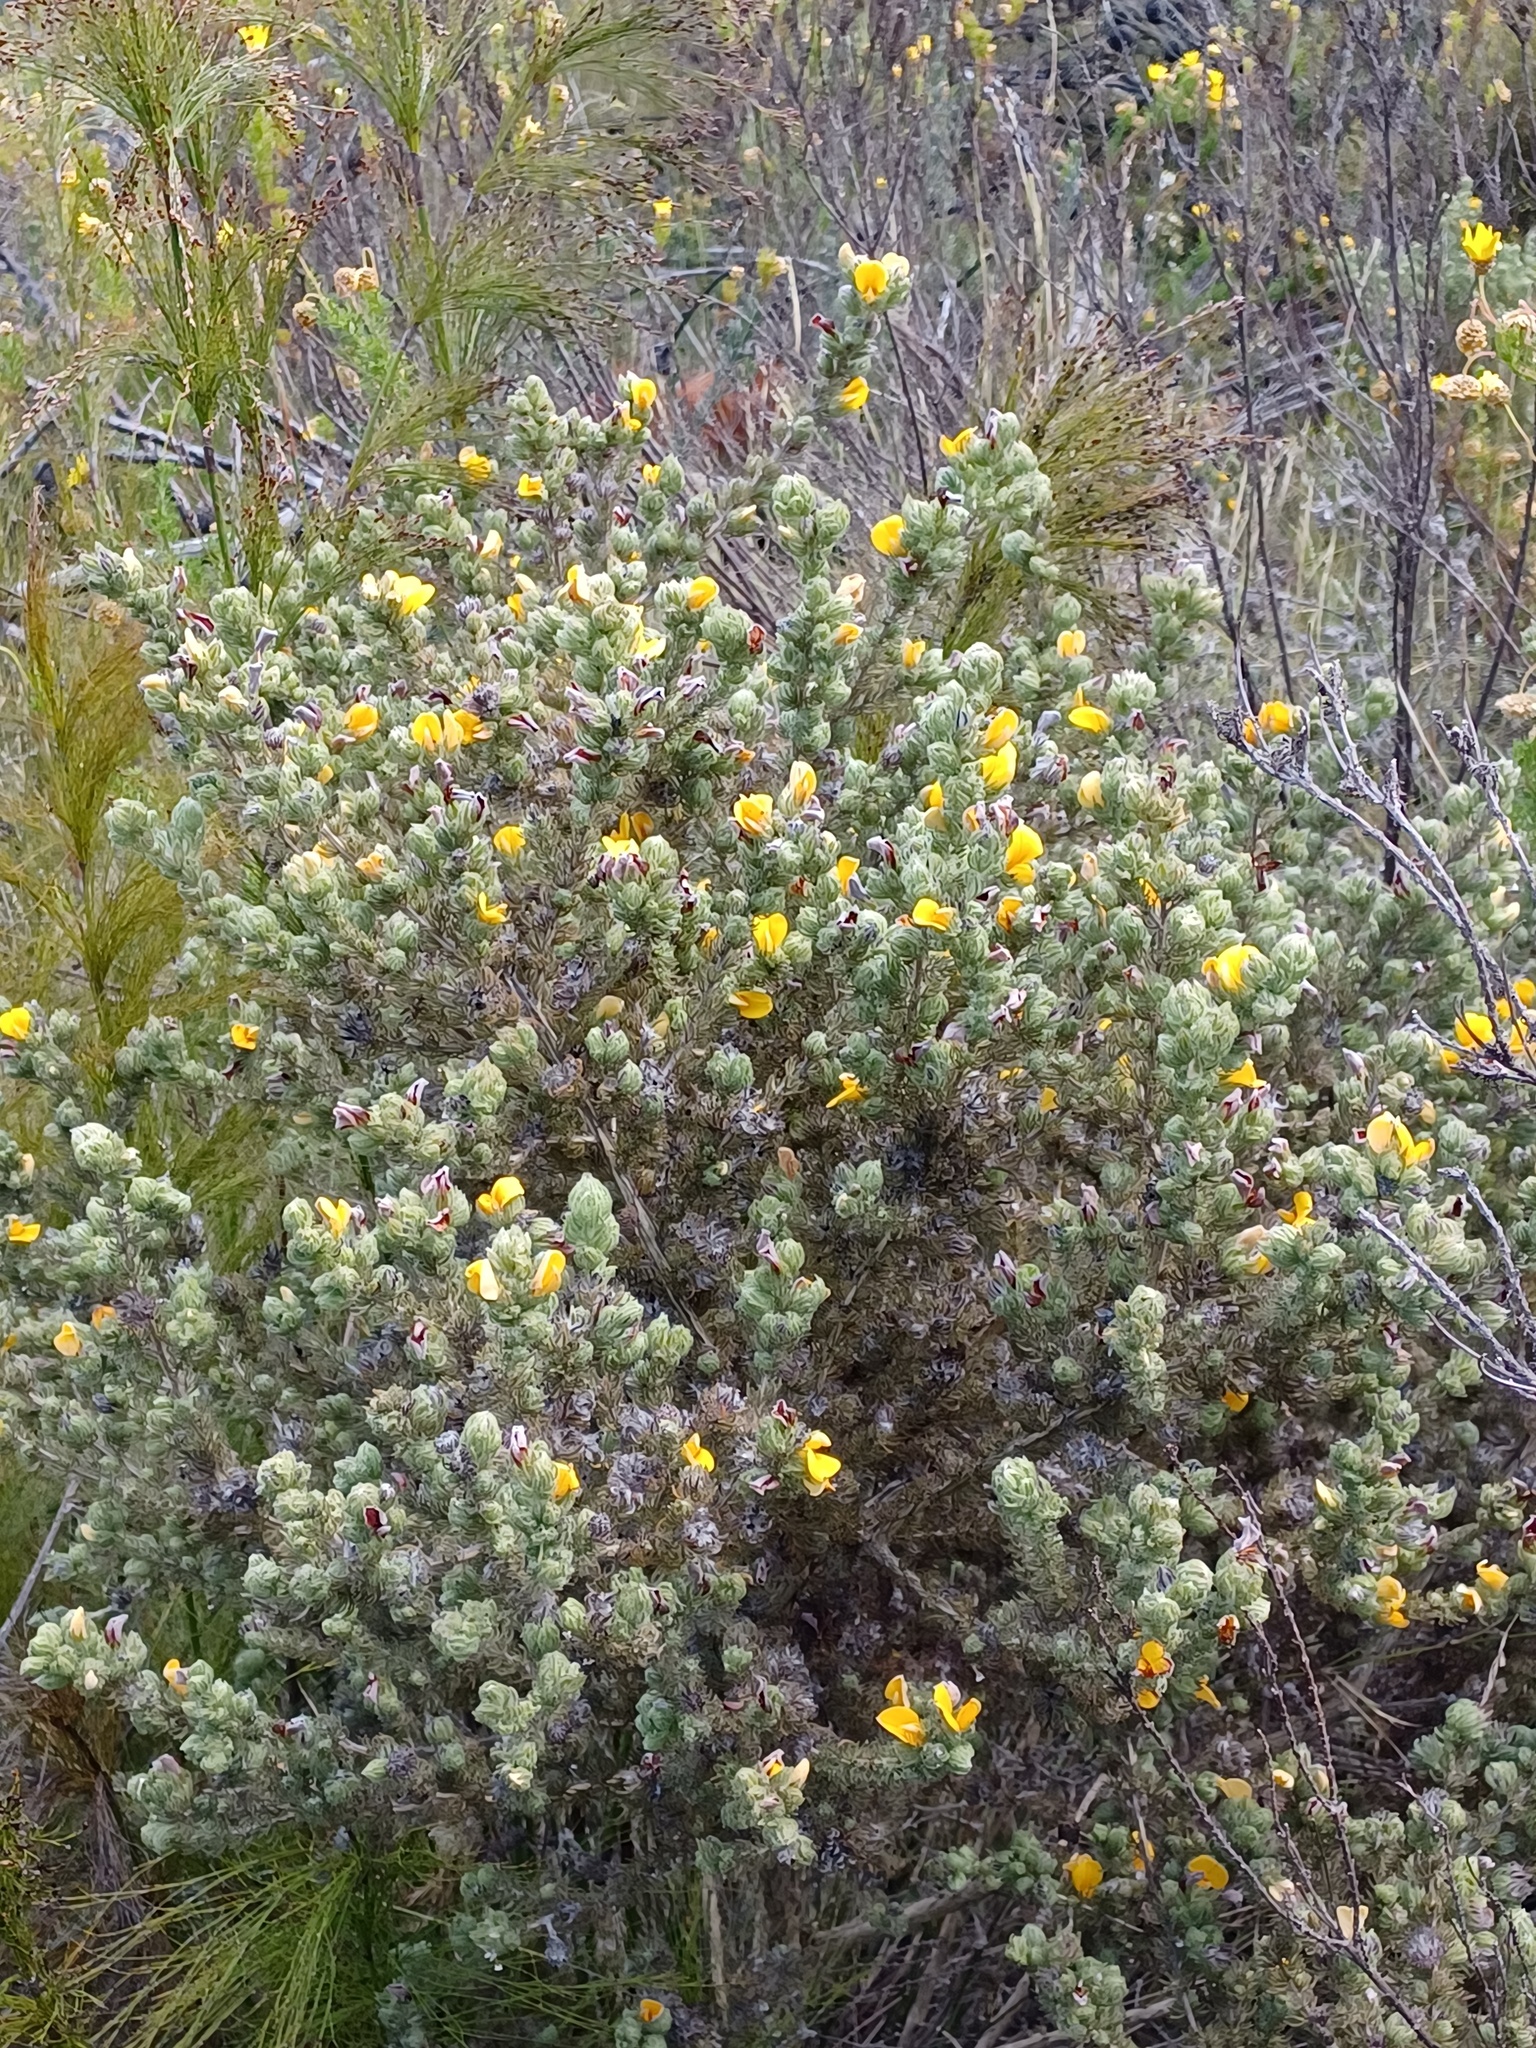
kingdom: Plantae
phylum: Tracheophyta
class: Magnoliopsida
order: Fabales
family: Fabaceae
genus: Aspalathus
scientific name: Aspalathus shawii
